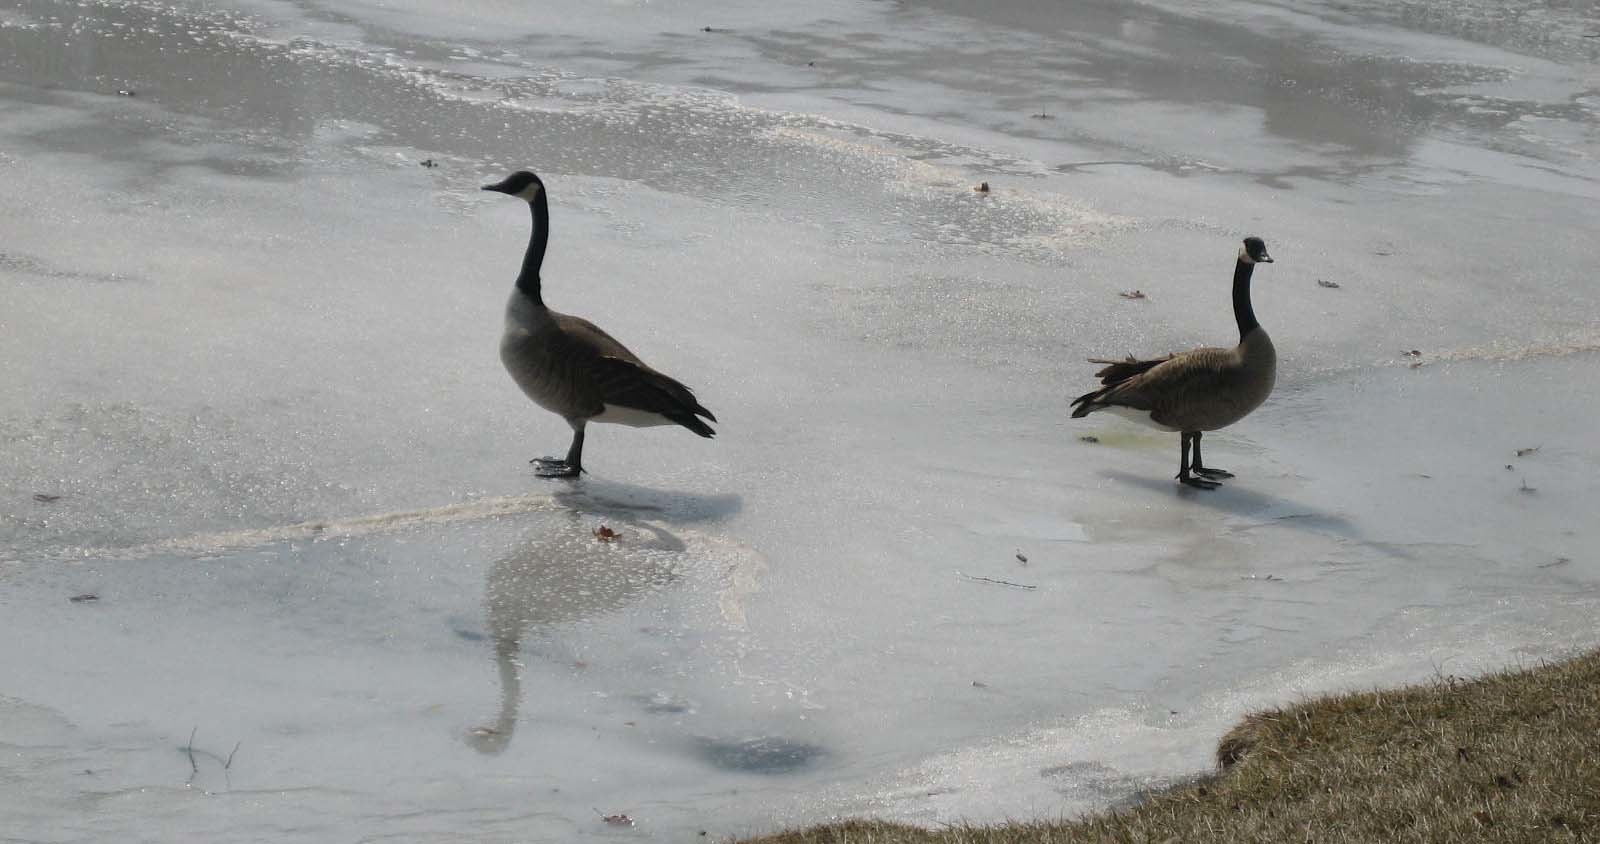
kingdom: Animalia
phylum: Chordata
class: Aves
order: Anseriformes
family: Anatidae
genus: Branta
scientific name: Branta canadensis
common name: Canada goose
